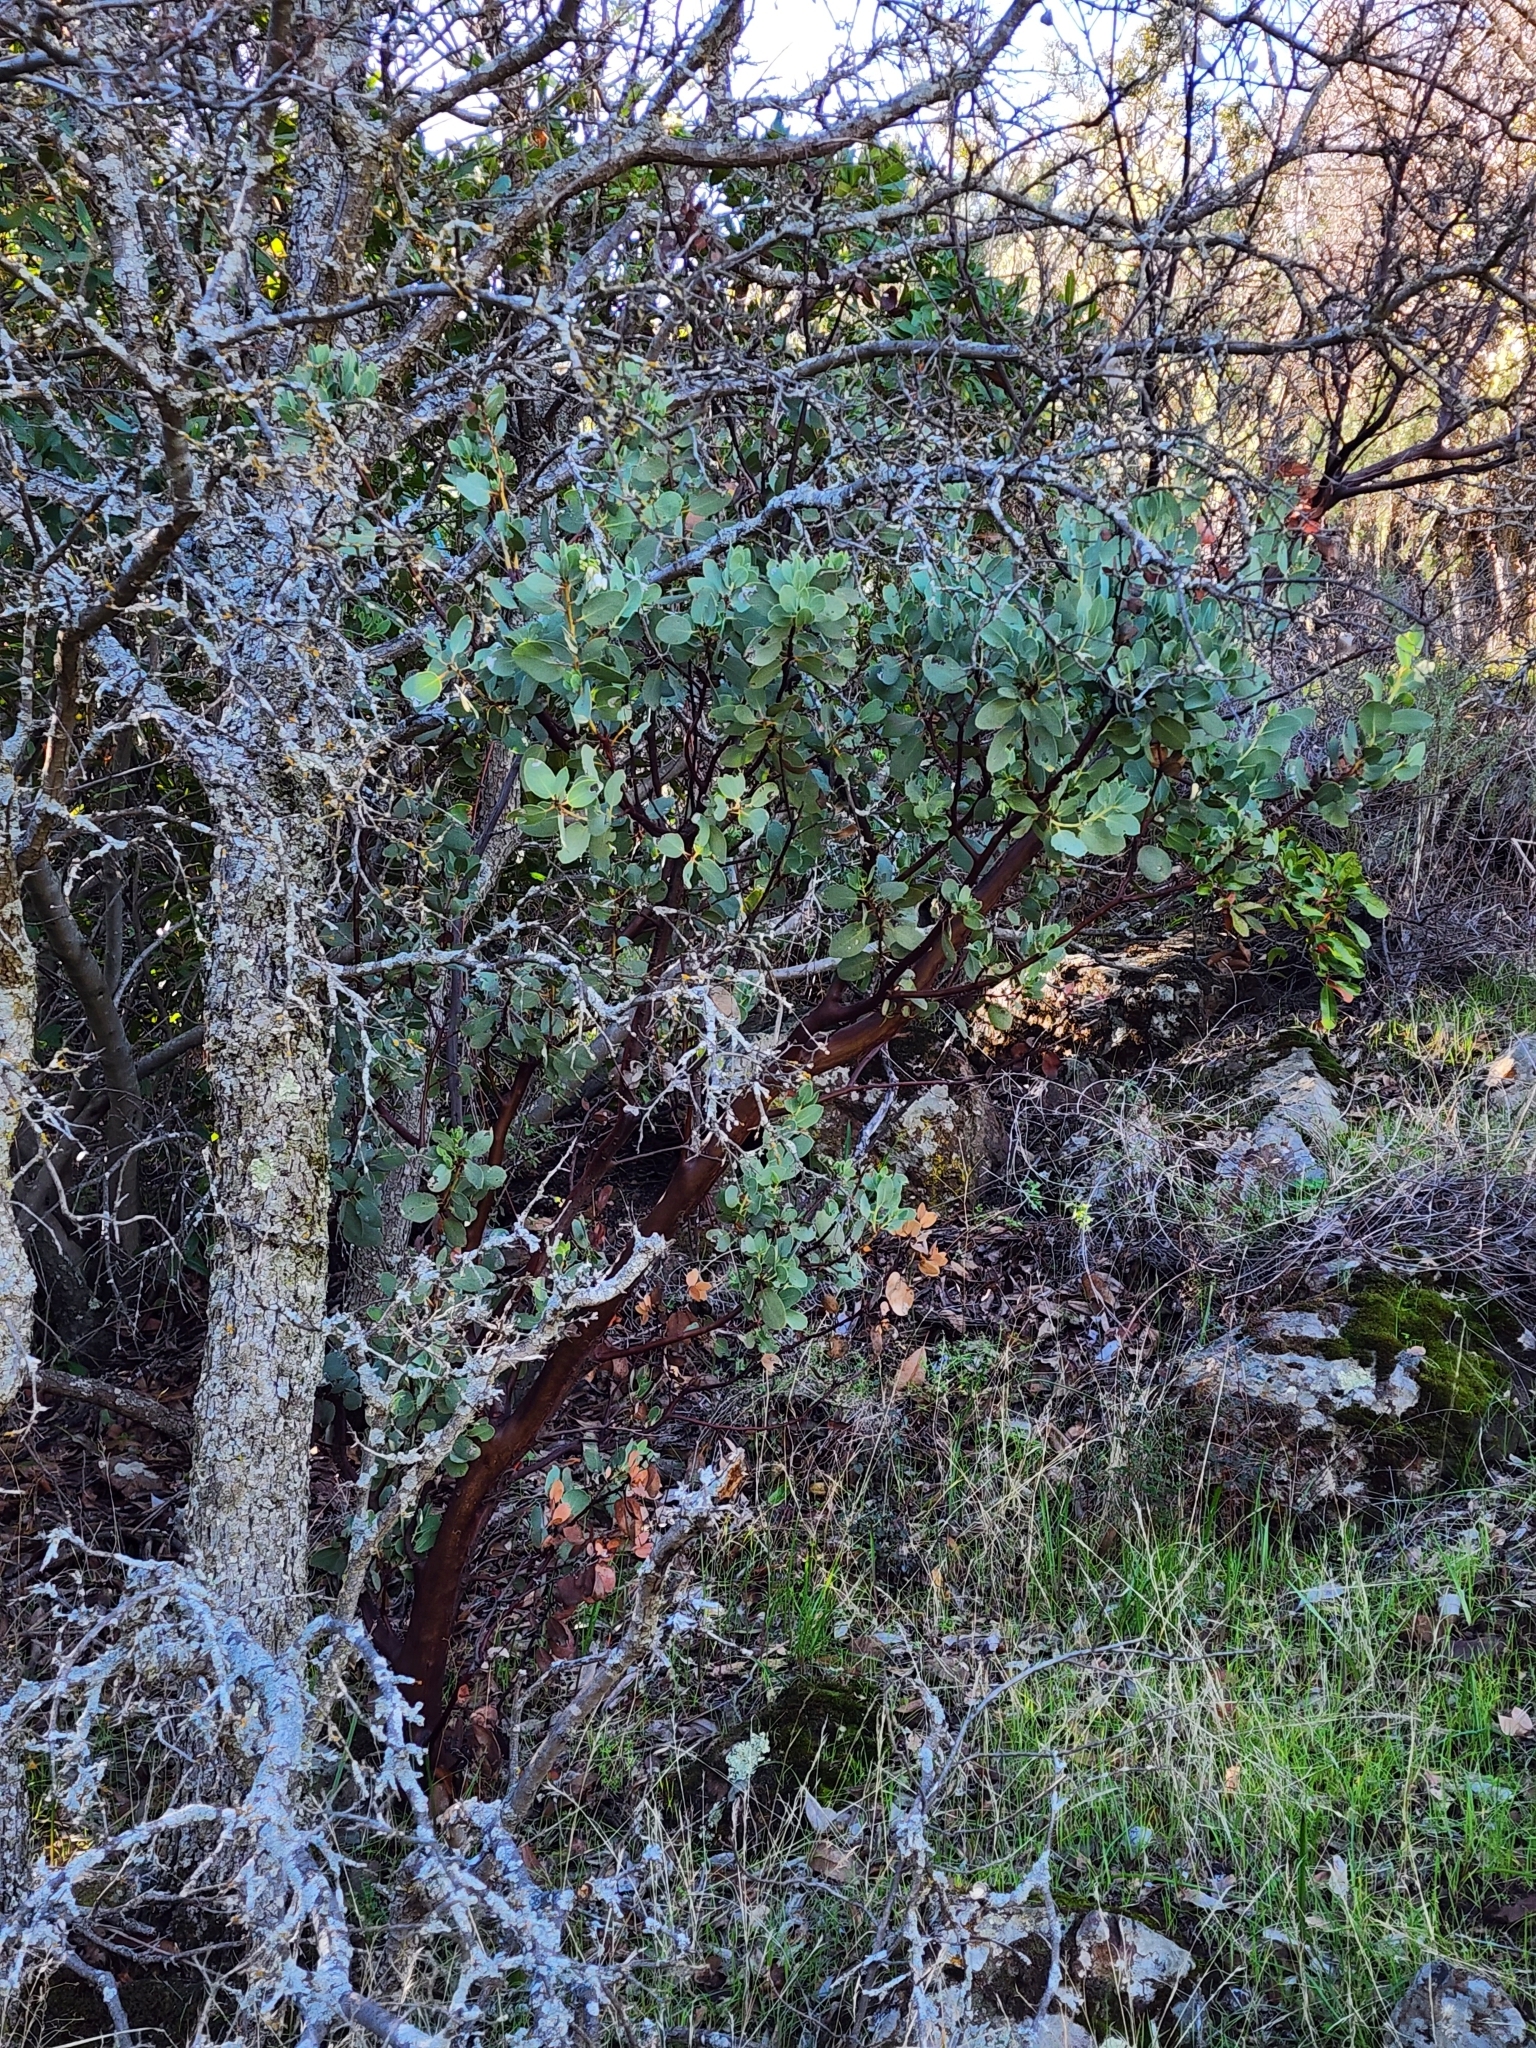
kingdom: Plantae
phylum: Tracheophyta
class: Magnoliopsida
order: Ericales
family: Ericaceae
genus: Arctostaphylos
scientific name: Arctostaphylos glauca
